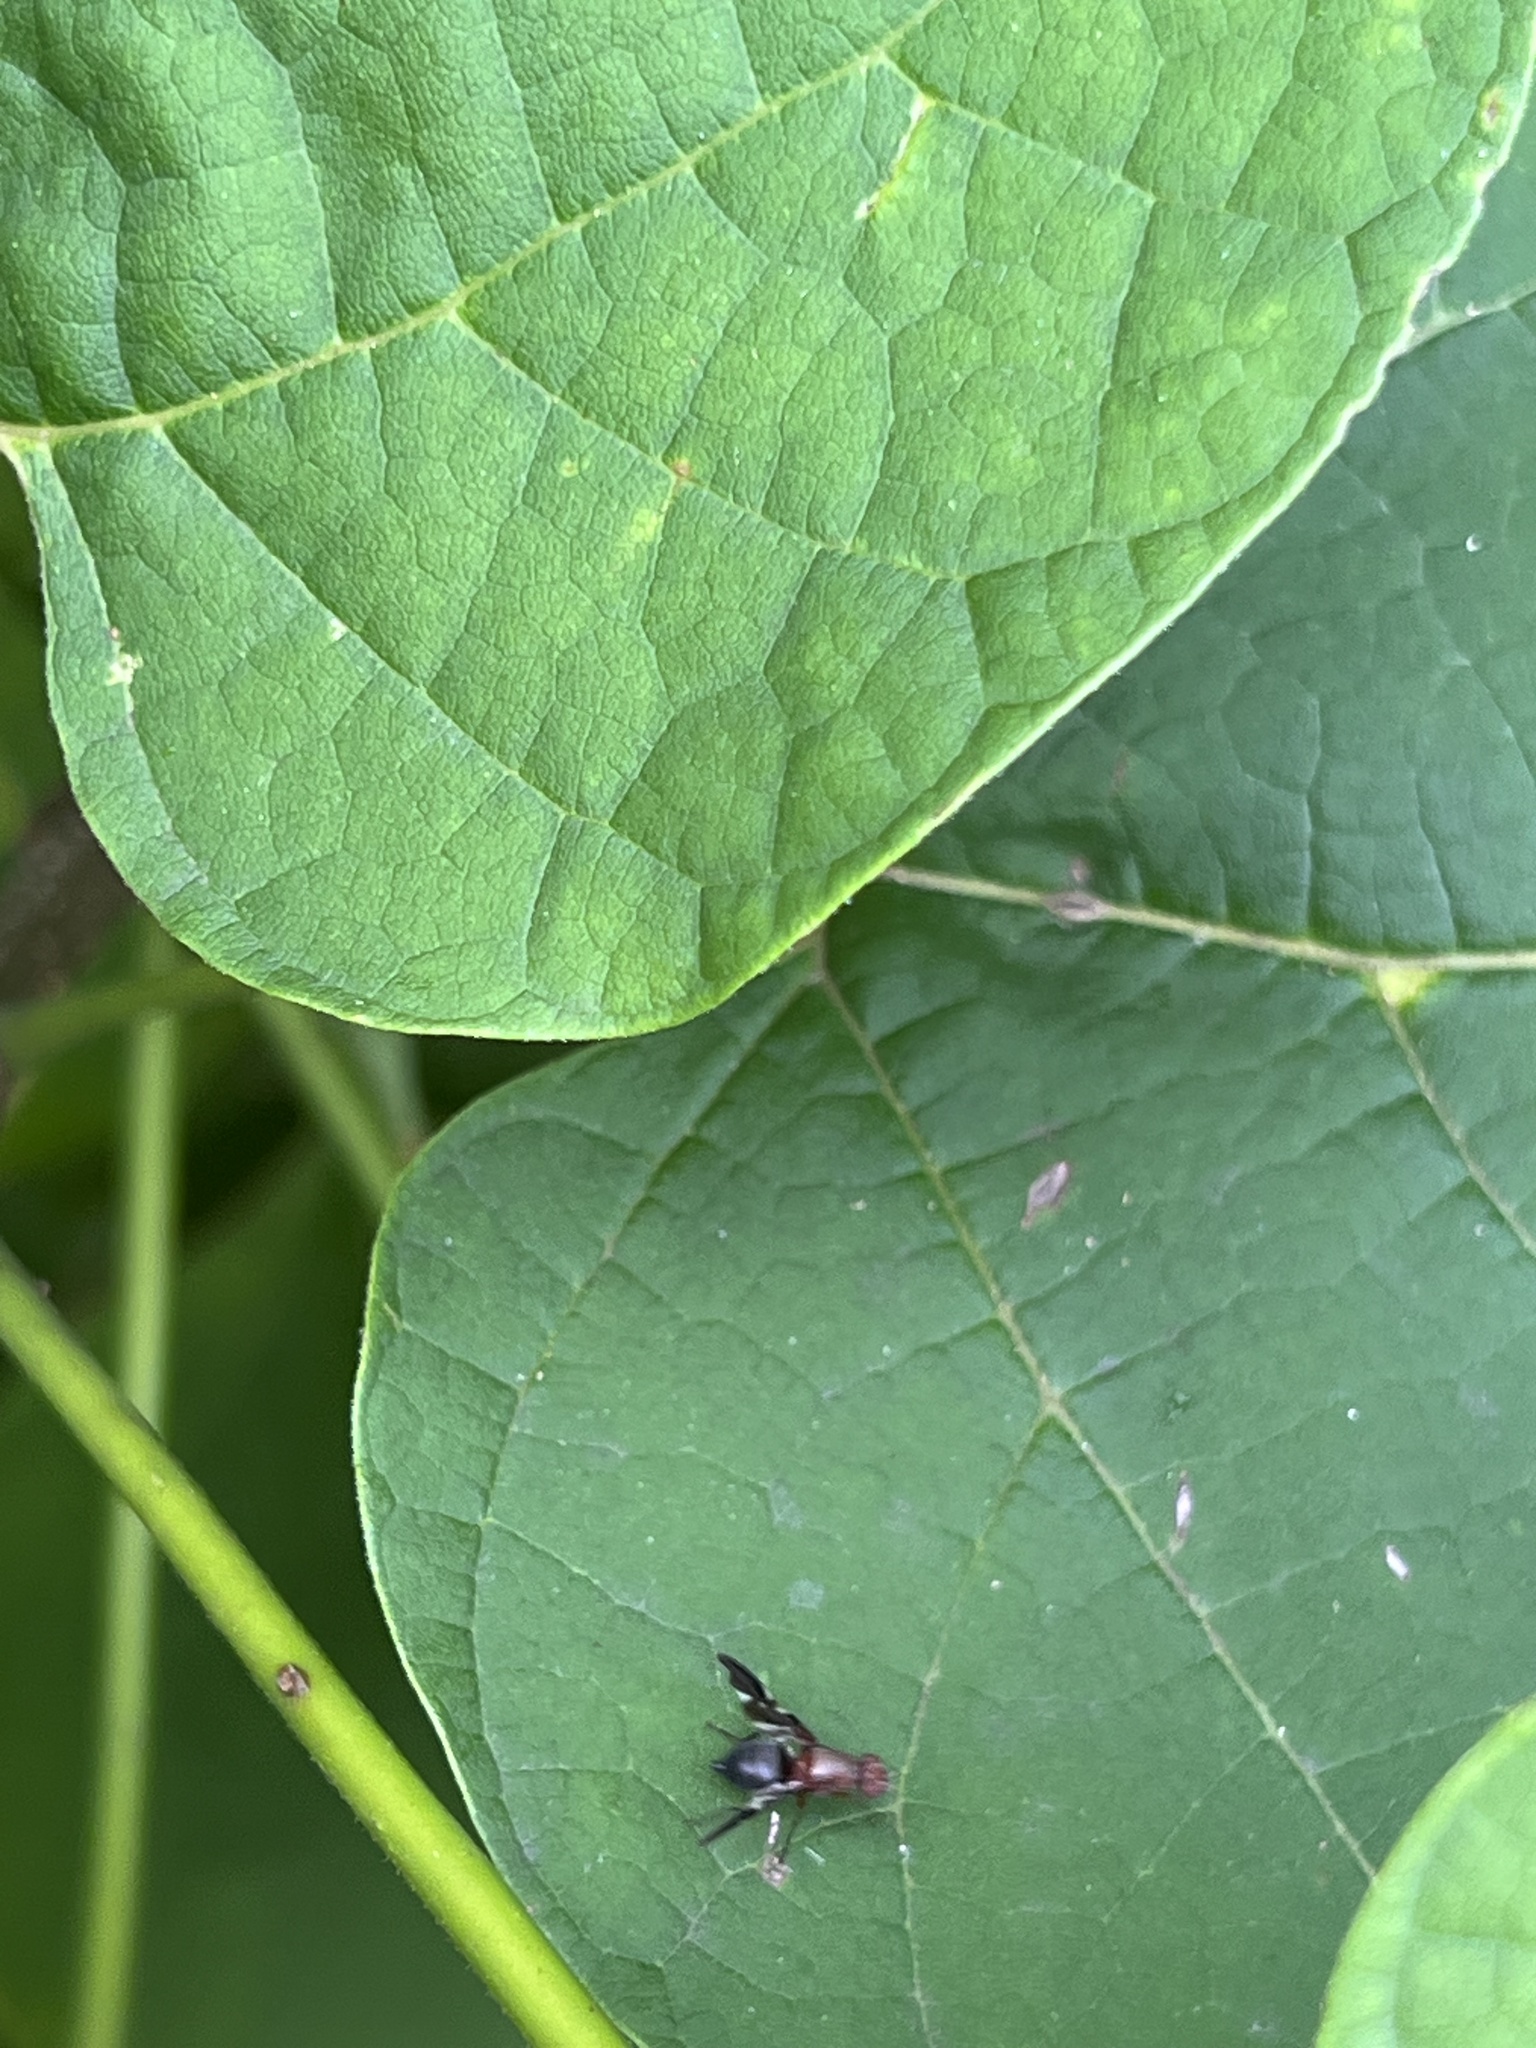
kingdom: Animalia
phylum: Arthropoda
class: Insecta
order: Diptera
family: Ulidiidae
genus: Delphinia
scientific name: Delphinia picta
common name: Common picture-winged fly
